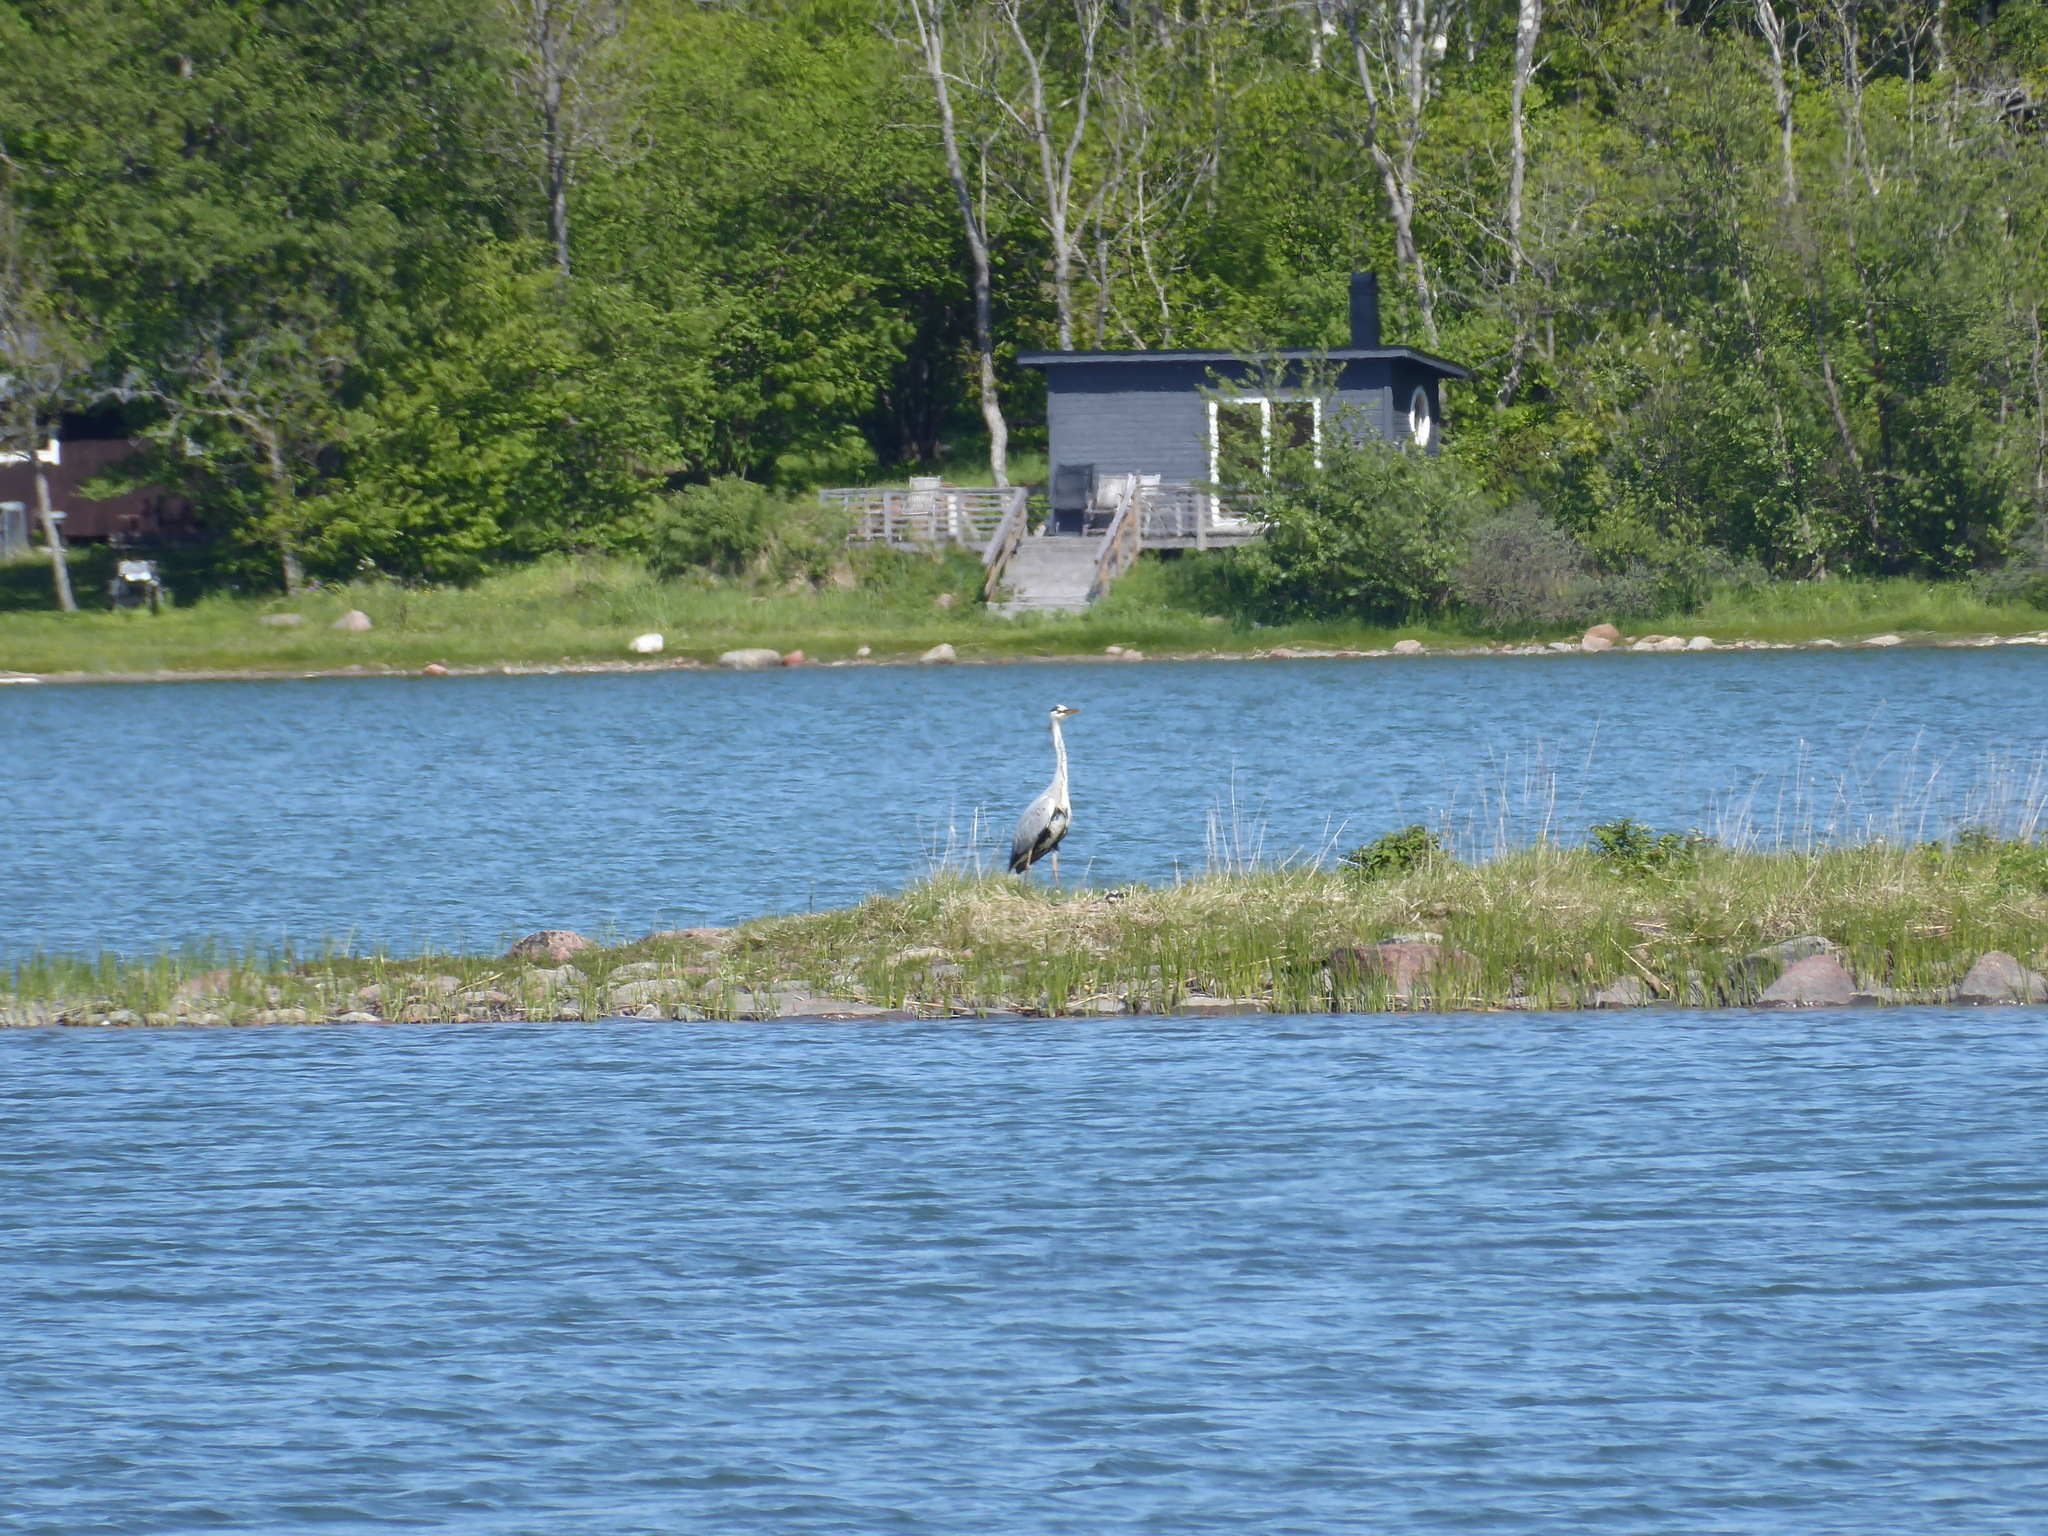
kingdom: Animalia
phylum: Chordata
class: Aves
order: Pelecaniformes
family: Ardeidae
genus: Ardea
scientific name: Ardea cinerea
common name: Grey heron
